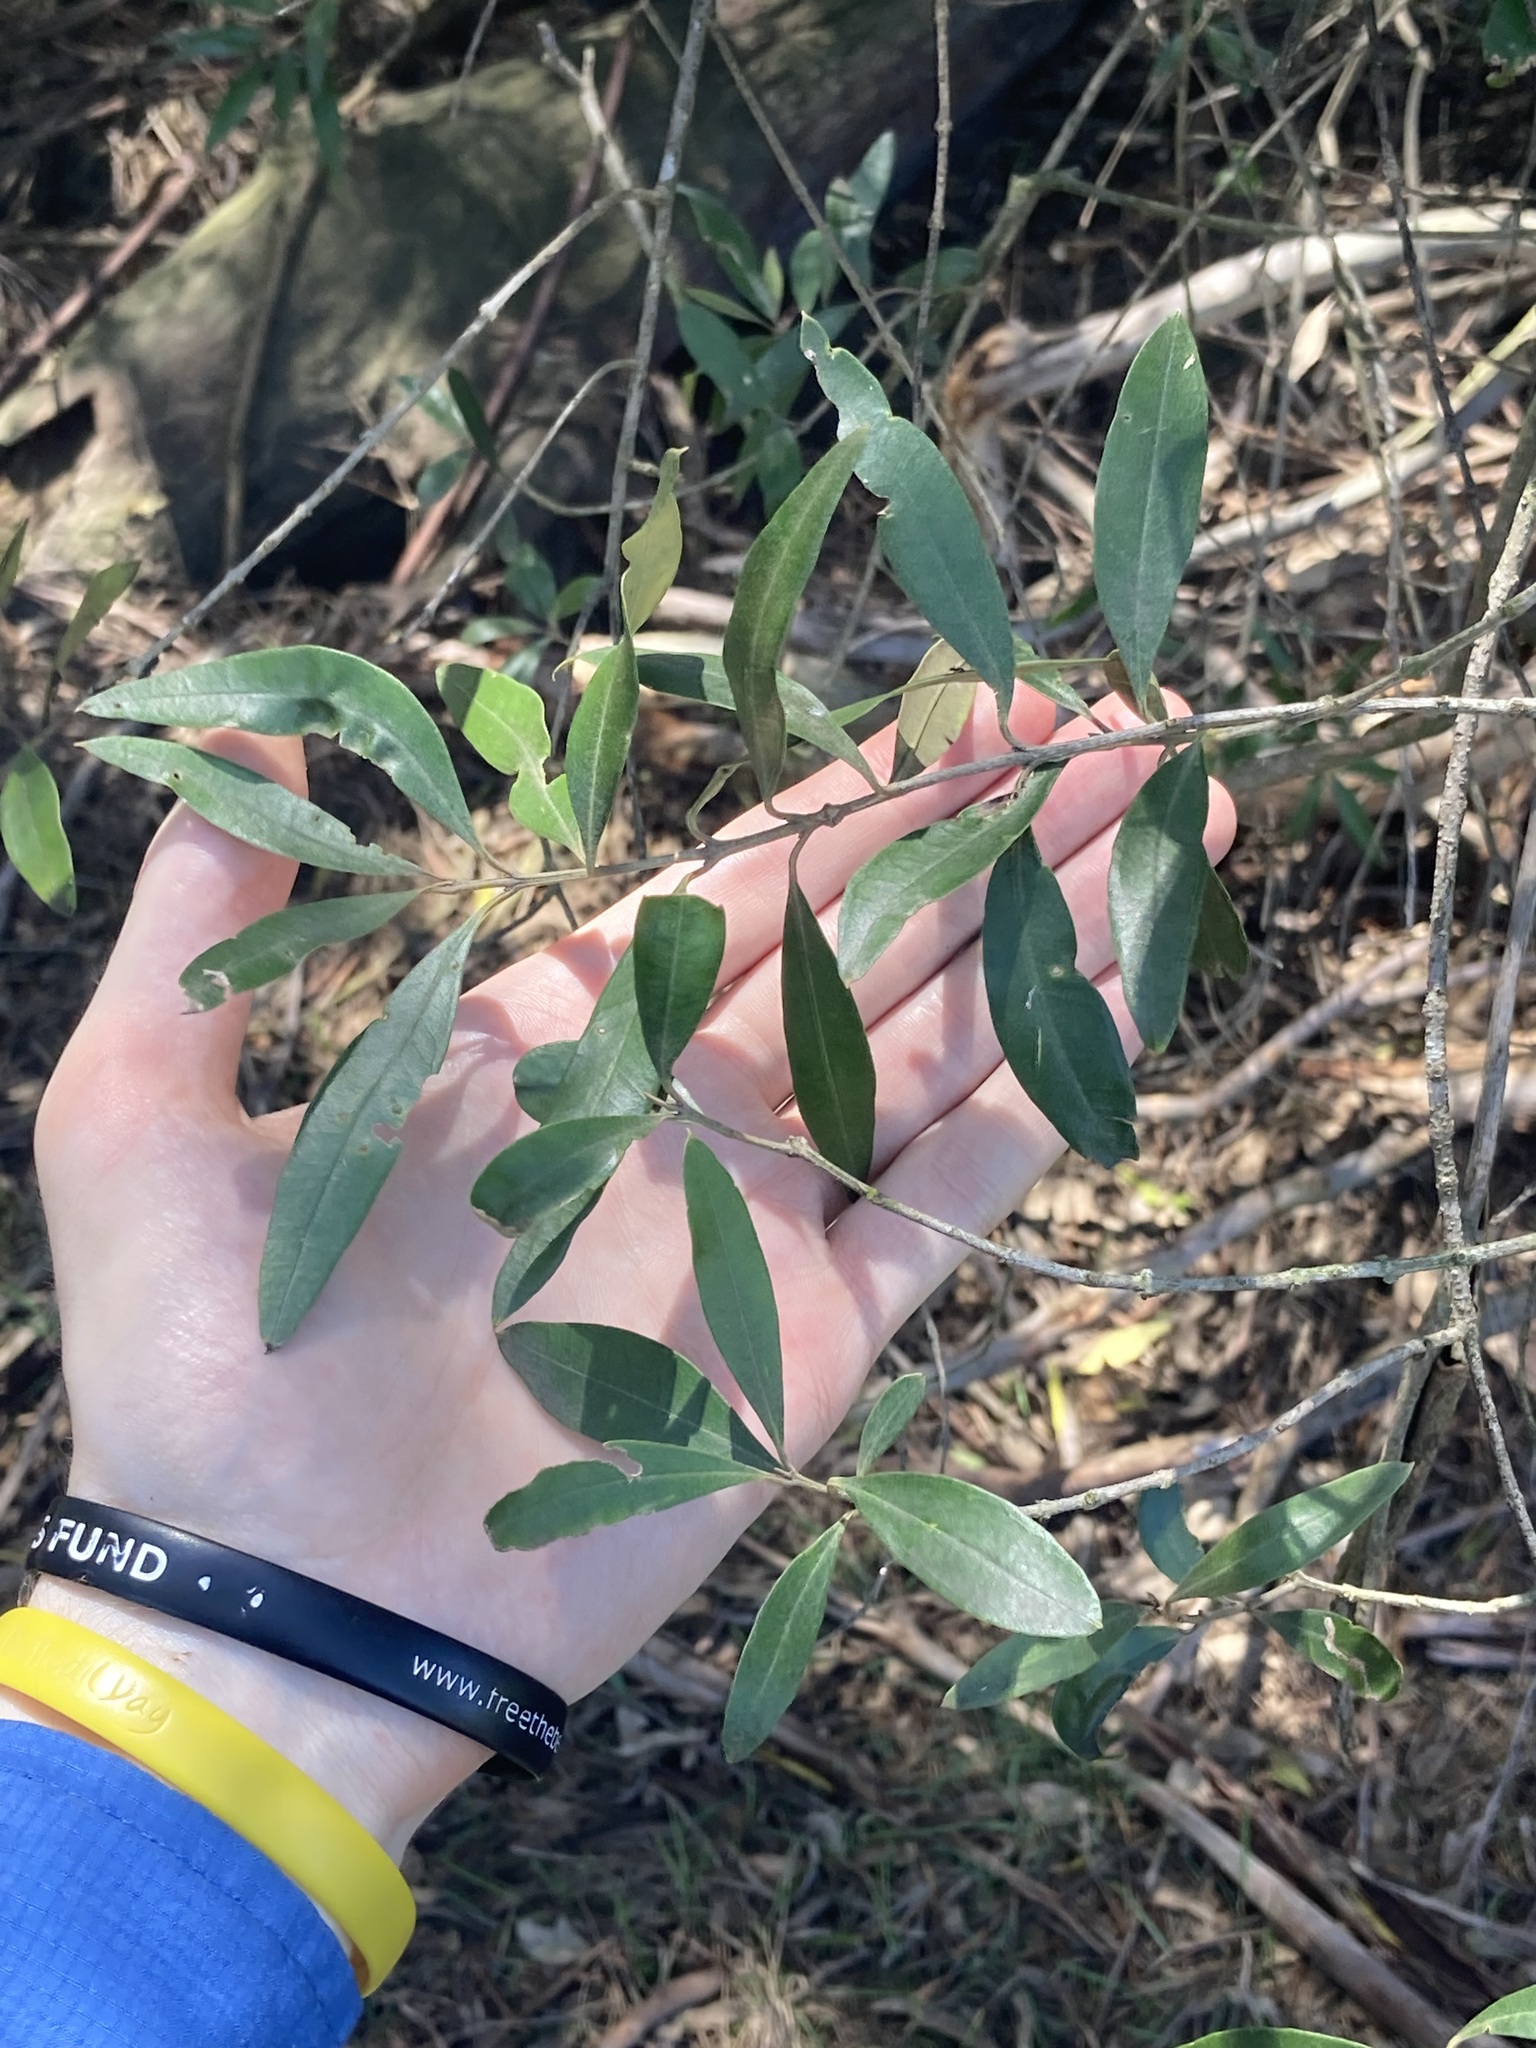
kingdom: Plantae
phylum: Tracheophyta
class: Magnoliopsida
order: Lamiales
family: Oleaceae
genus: Olea
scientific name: Olea europaea
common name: Olive
